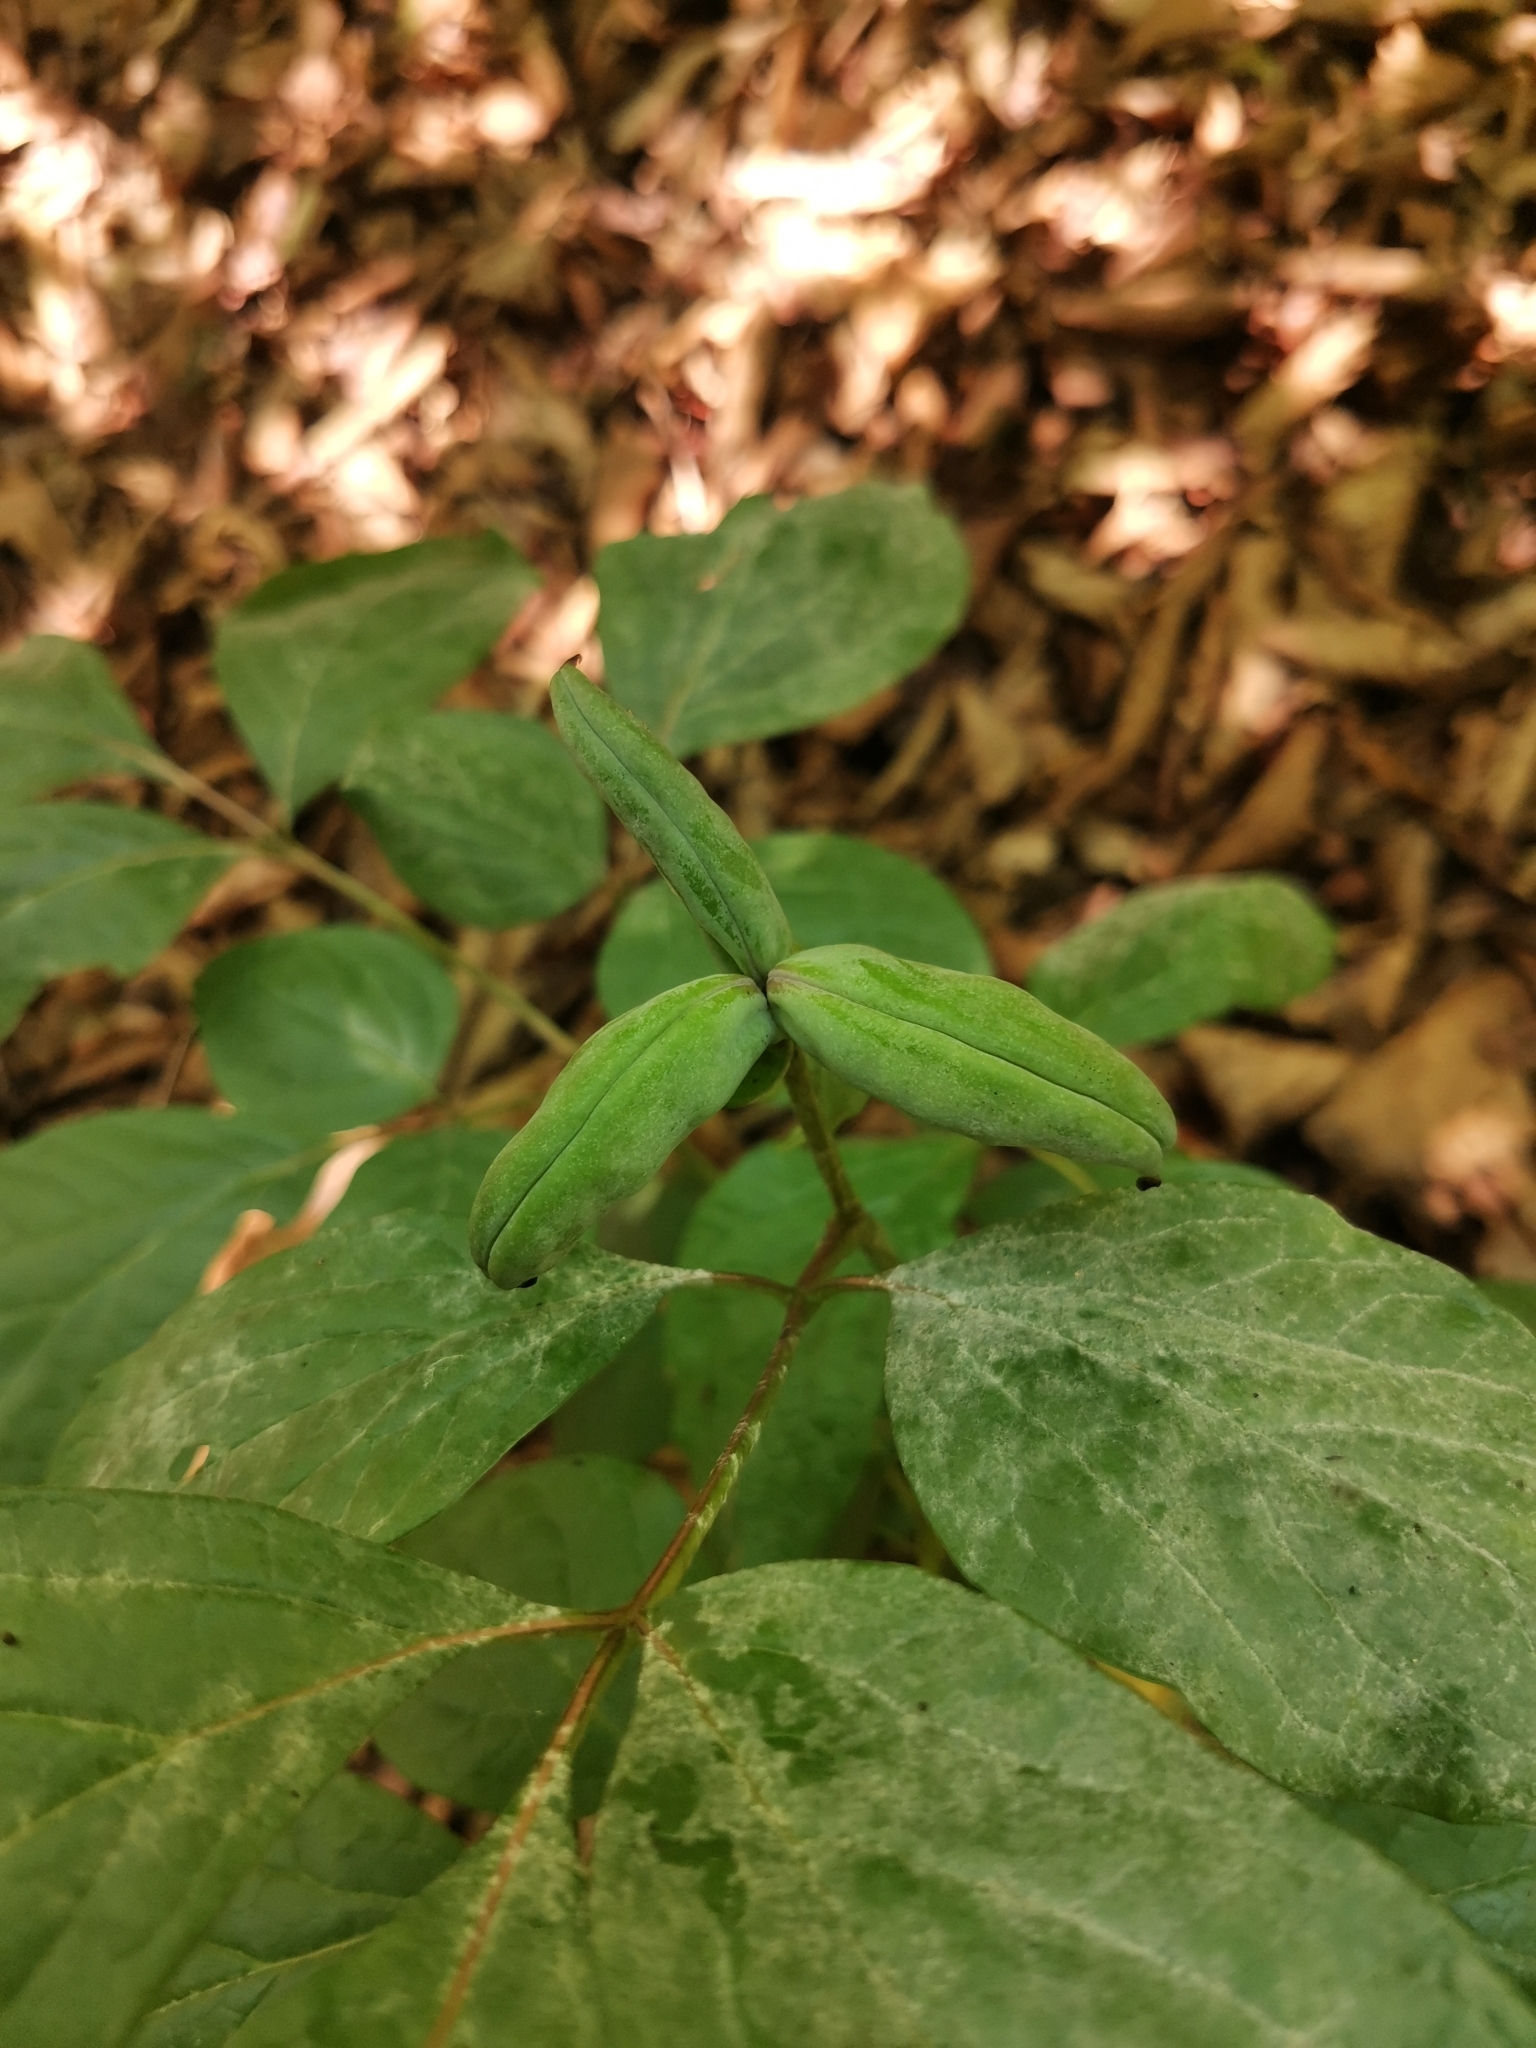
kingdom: Plantae
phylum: Tracheophyta
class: Magnoliopsida
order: Saxifragales
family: Paeoniaceae
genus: Paeonia
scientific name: Paeonia obovata
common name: Chinese peony
